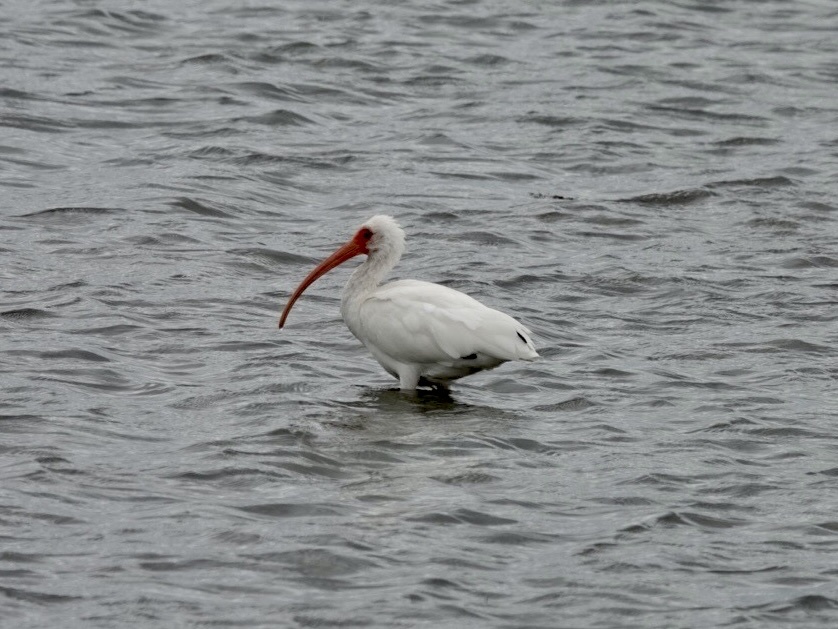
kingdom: Animalia
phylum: Chordata
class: Aves
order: Pelecaniformes
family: Threskiornithidae
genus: Eudocimus
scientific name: Eudocimus albus
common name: White ibis
